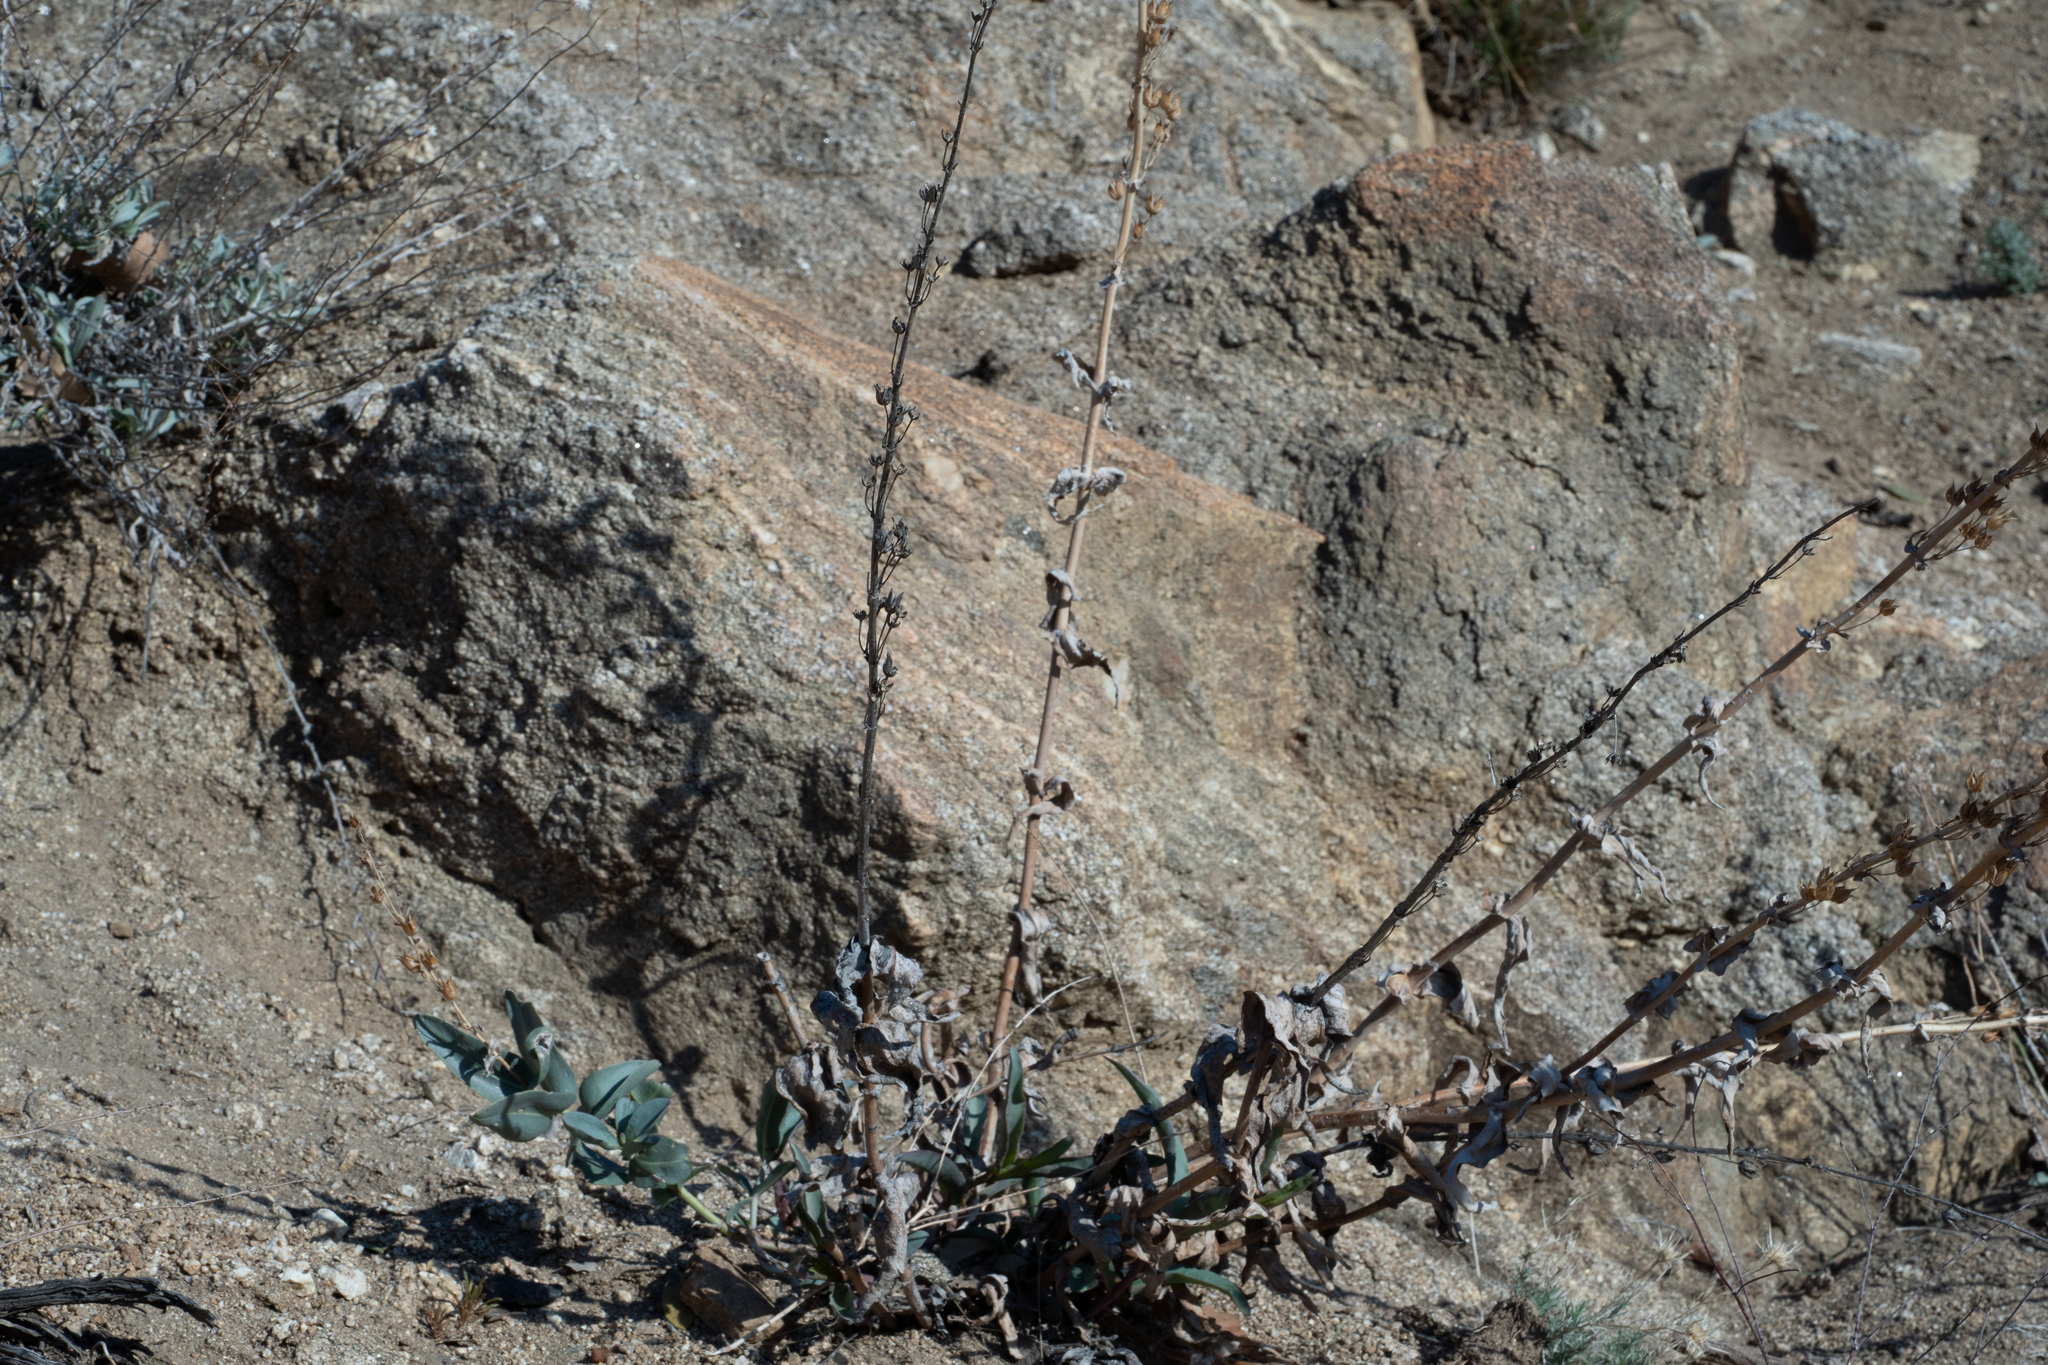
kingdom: Plantae
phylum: Tracheophyta
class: Magnoliopsida
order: Lamiales
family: Plantaginaceae
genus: Penstemon
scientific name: Penstemon centranthifolius
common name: Scarlet bugler
